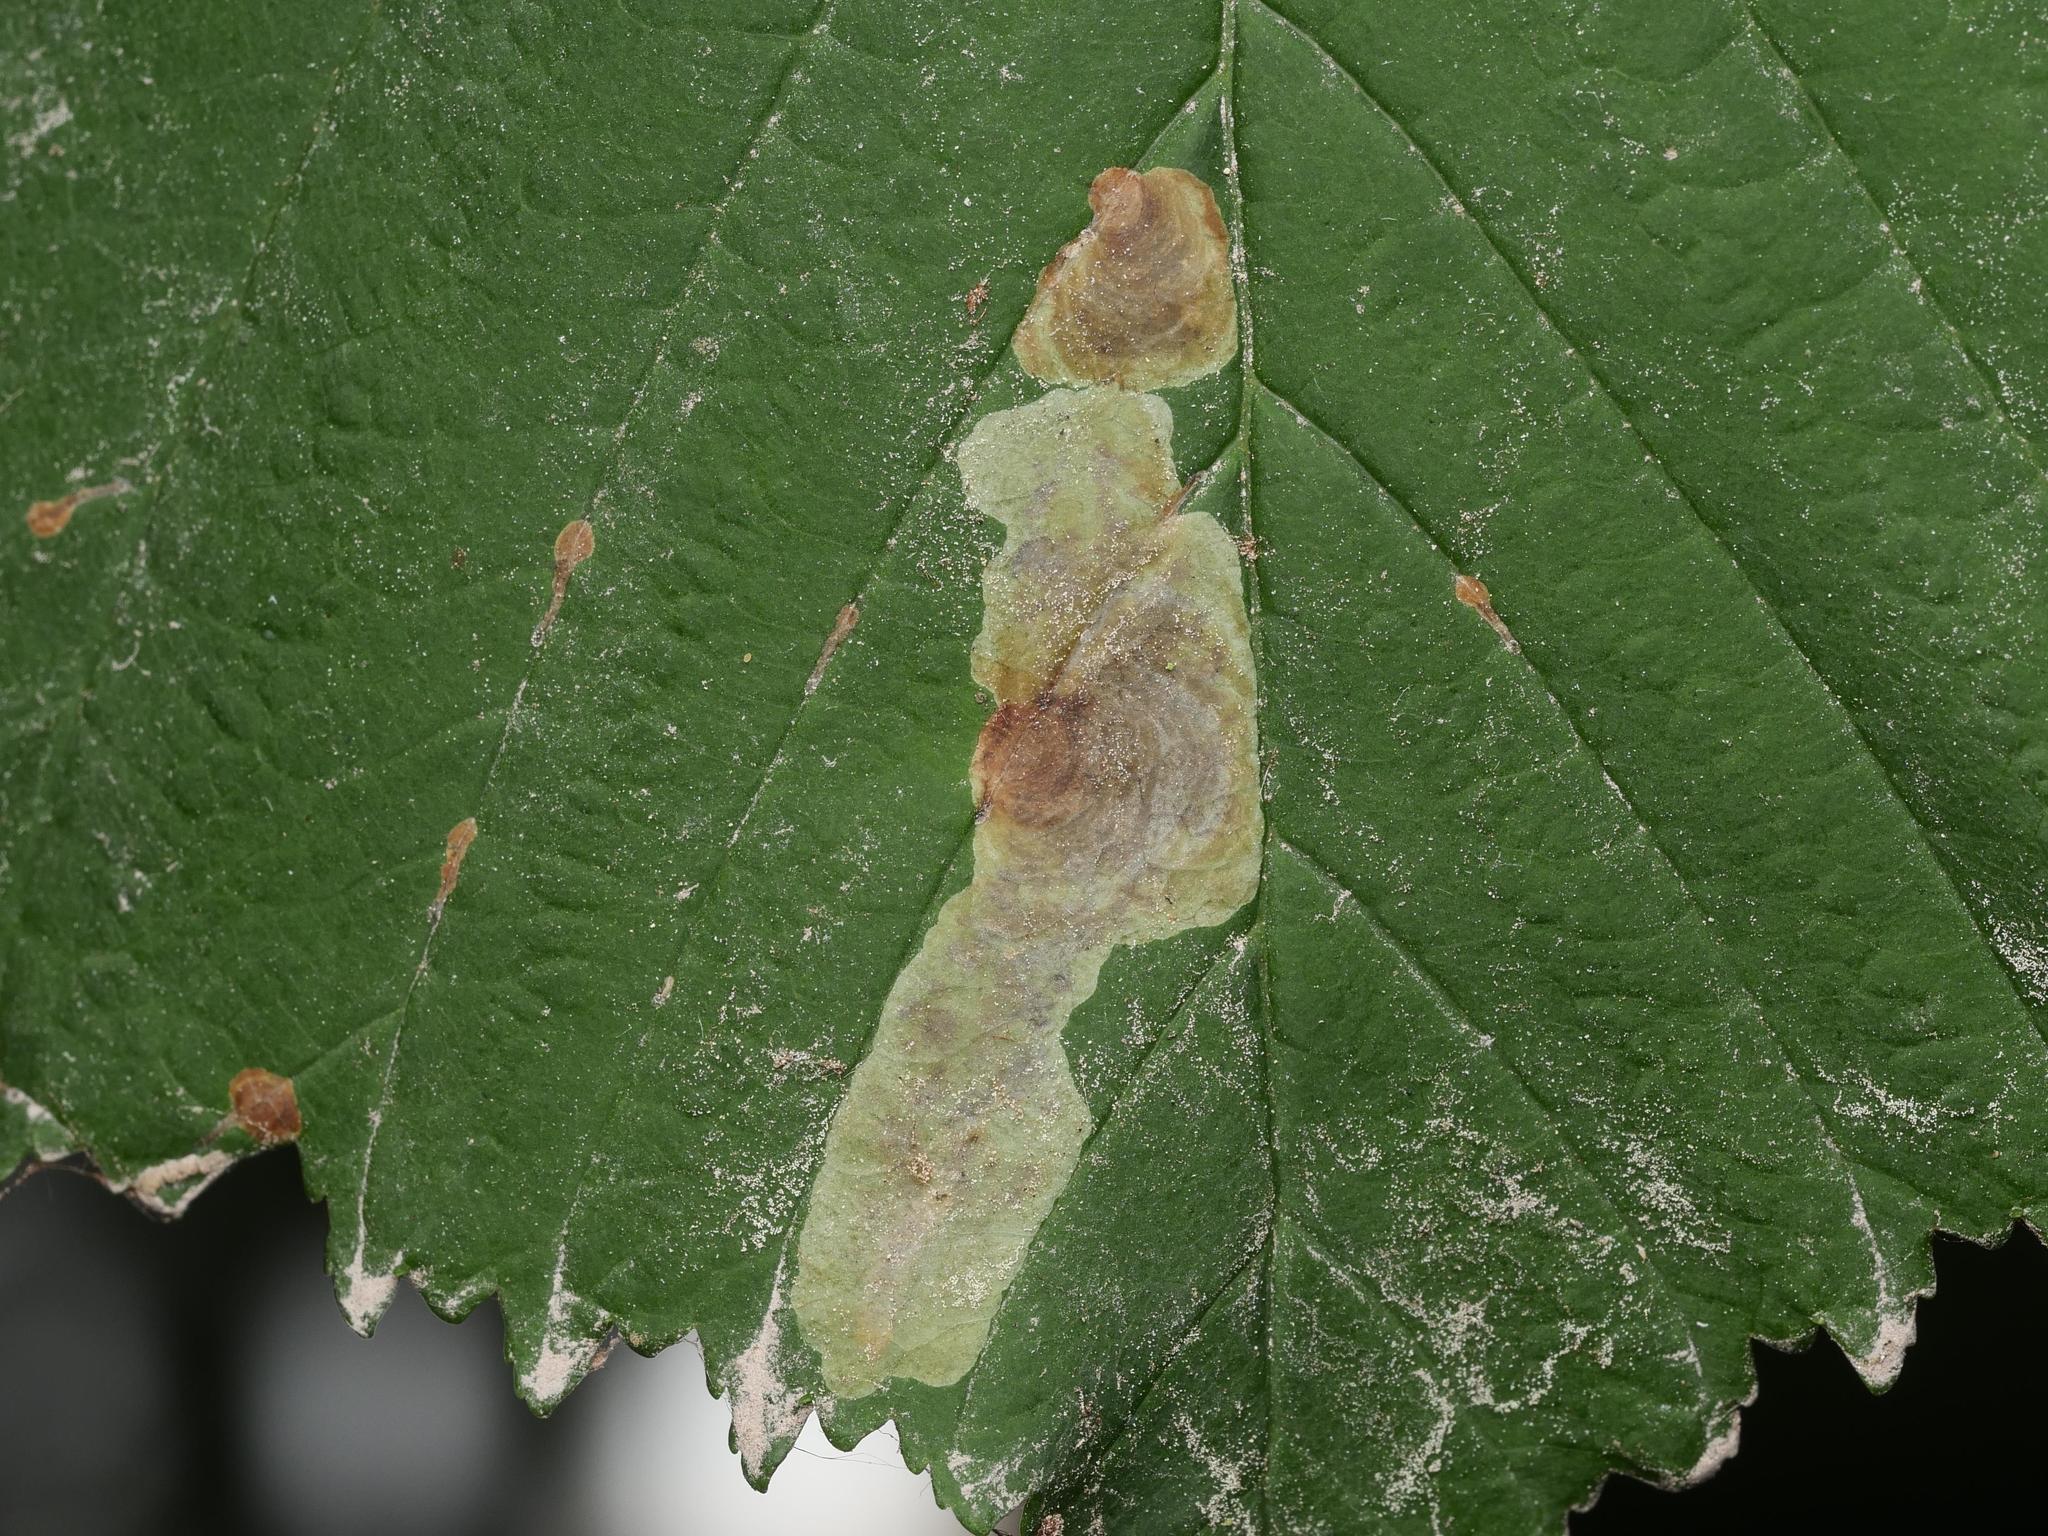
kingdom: Animalia
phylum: Arthropoda
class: Insecta
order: Lepidoptera
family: Gracillariidae
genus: Cameraria
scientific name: Cameraria ohridella
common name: Horse-chestnut leaf-miner
